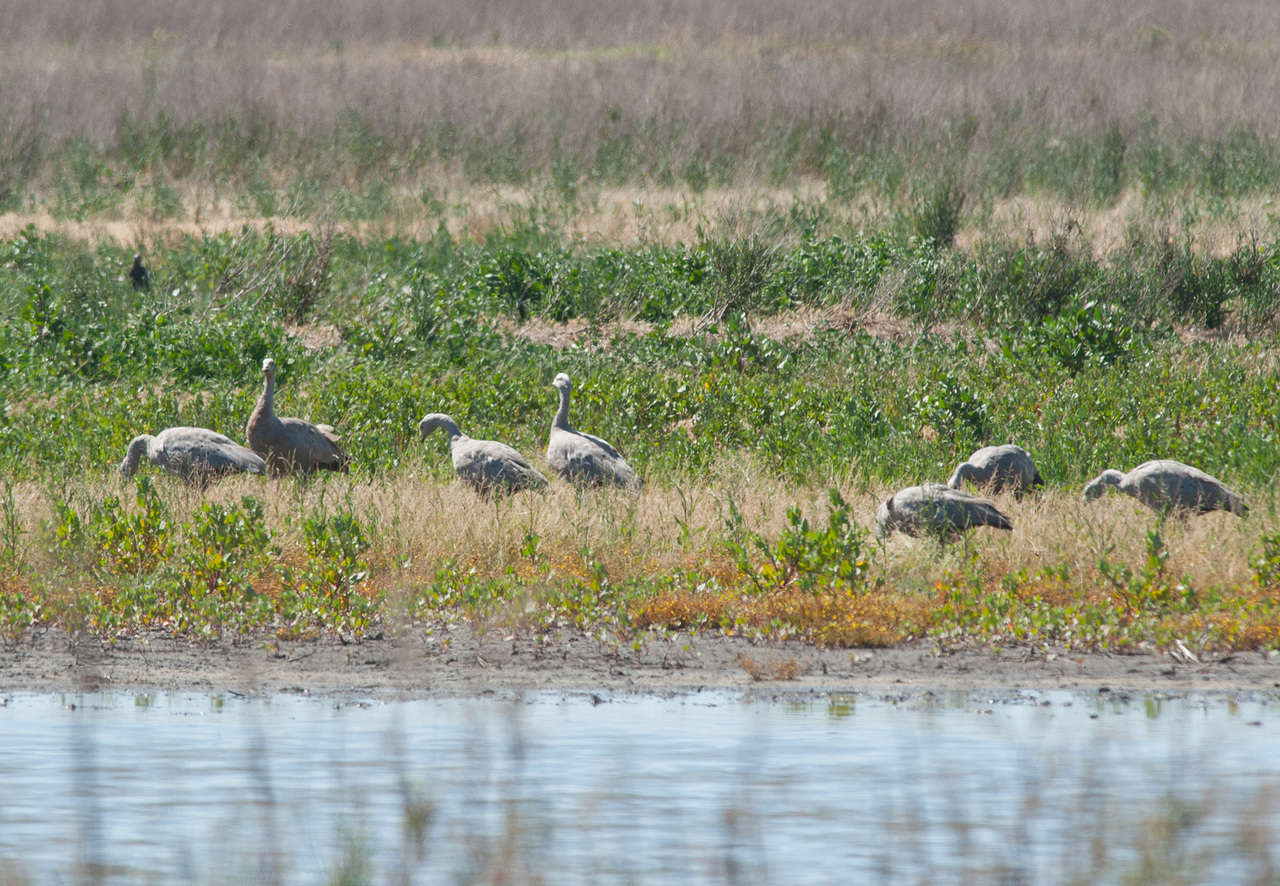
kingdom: Animalia
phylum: Chordata
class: Aves
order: Anseriformes
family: Anatidae
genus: Cereopsis
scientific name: Cereopsis novaehollandiae
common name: Cape barren goose
